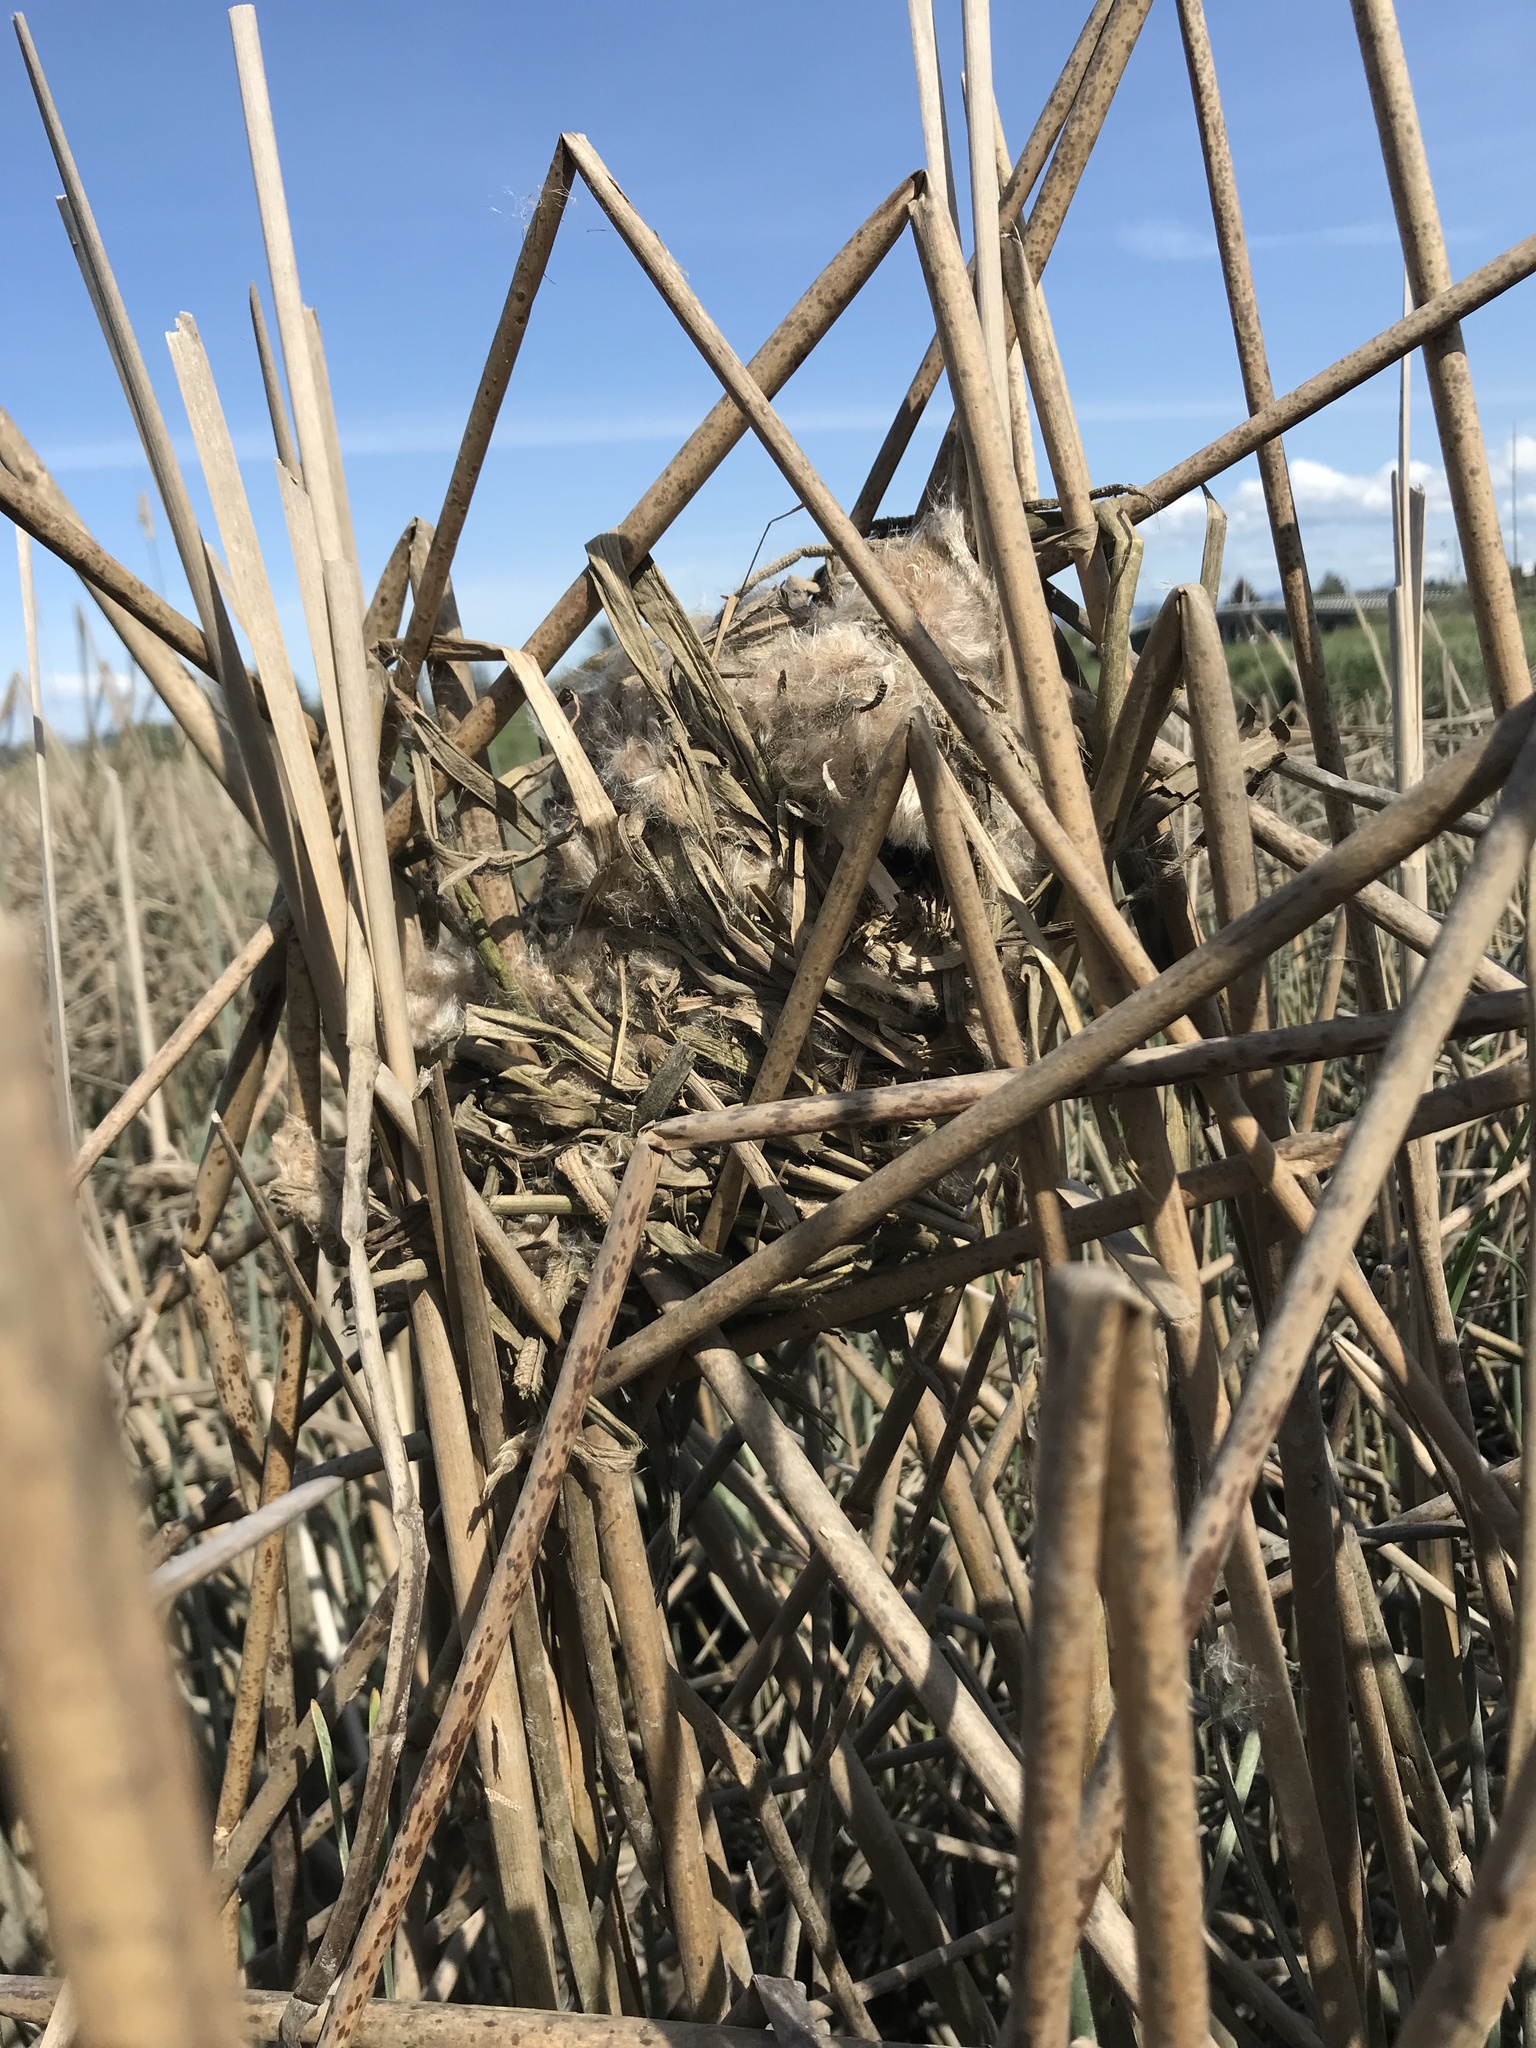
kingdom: Animalia
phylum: Chordata
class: Aves
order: Passeriformes
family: Troglodytidae
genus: Cistothorus
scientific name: Cistothorus palustris
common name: Marsh wren
